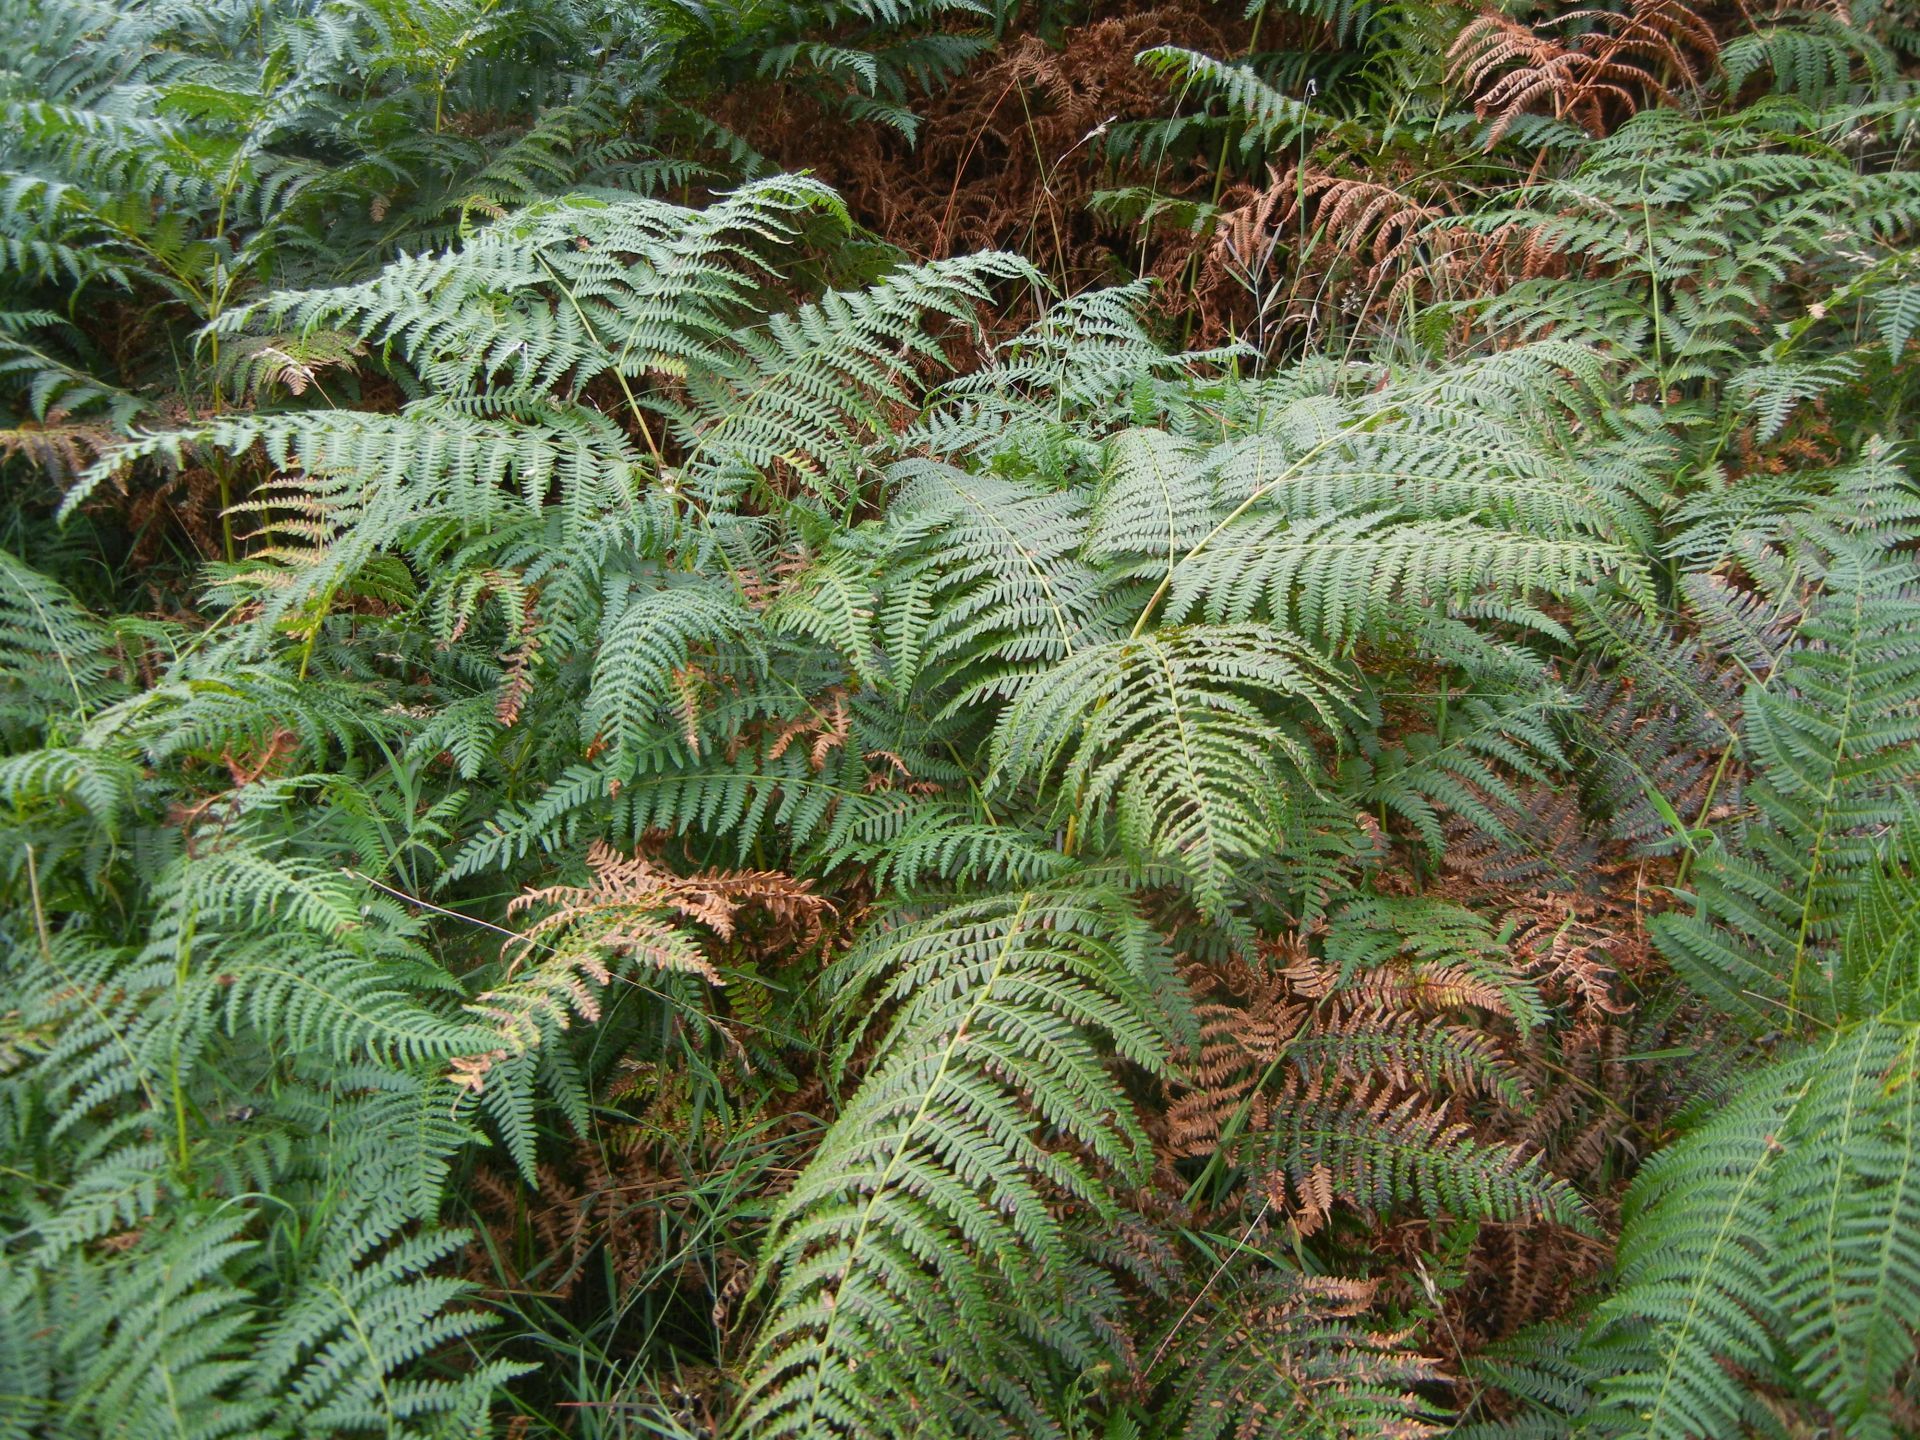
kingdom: Plantae
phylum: Tracheophyta
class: Polypodiopsida
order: Polypodiales
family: Dennstaedtiaceae
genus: Pteridium
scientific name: Pteridium aquilinum
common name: Bracken
